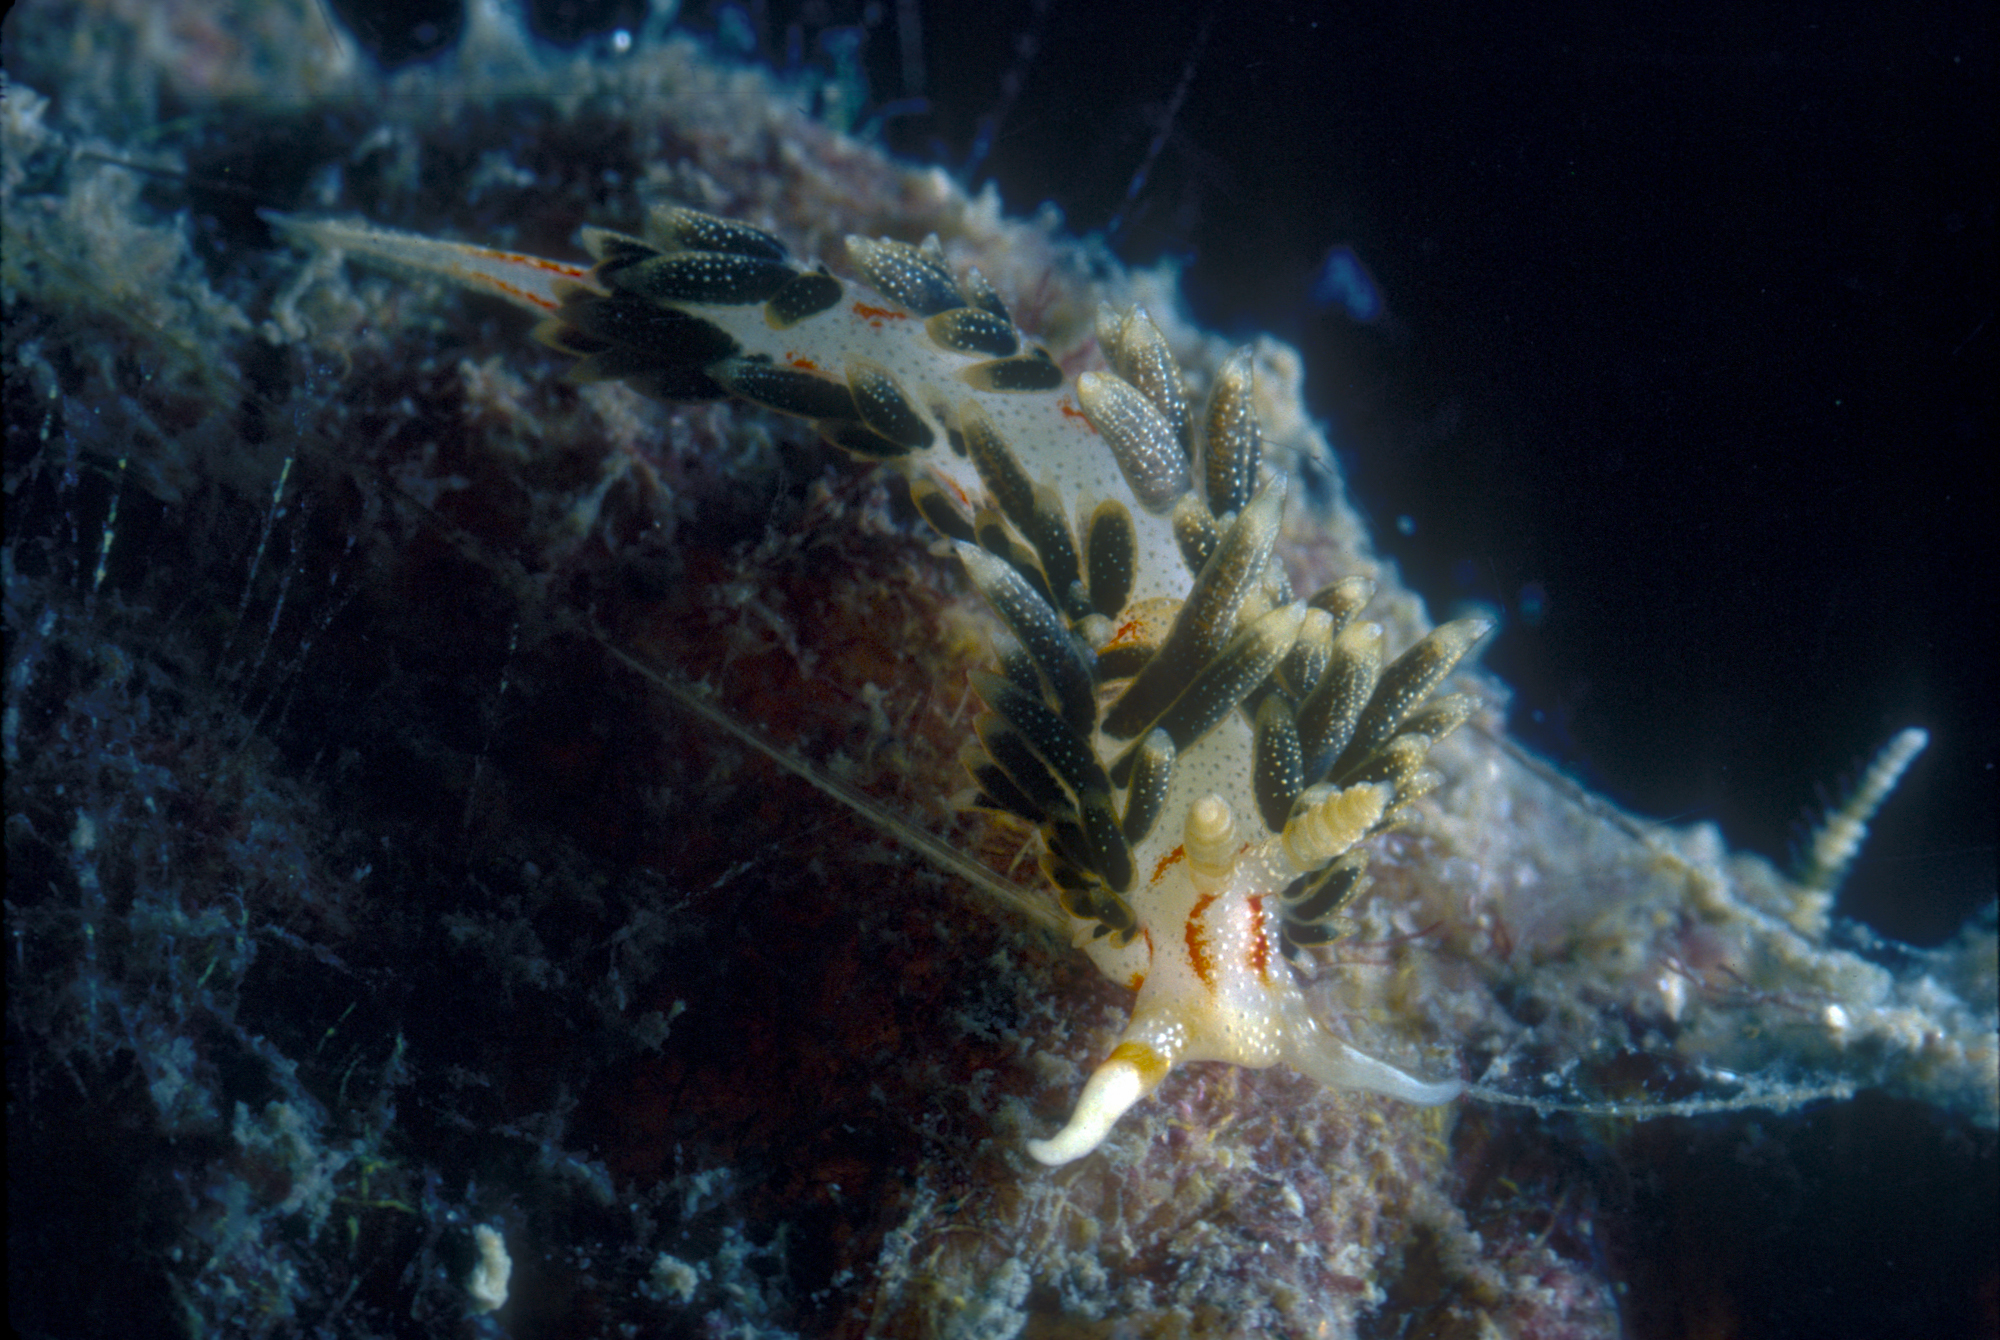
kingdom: Animalia
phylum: Mollusca
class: Gastropoda
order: Nudibranchia
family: Facelinidae
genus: Phidiana
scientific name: Phidiana anulifera
